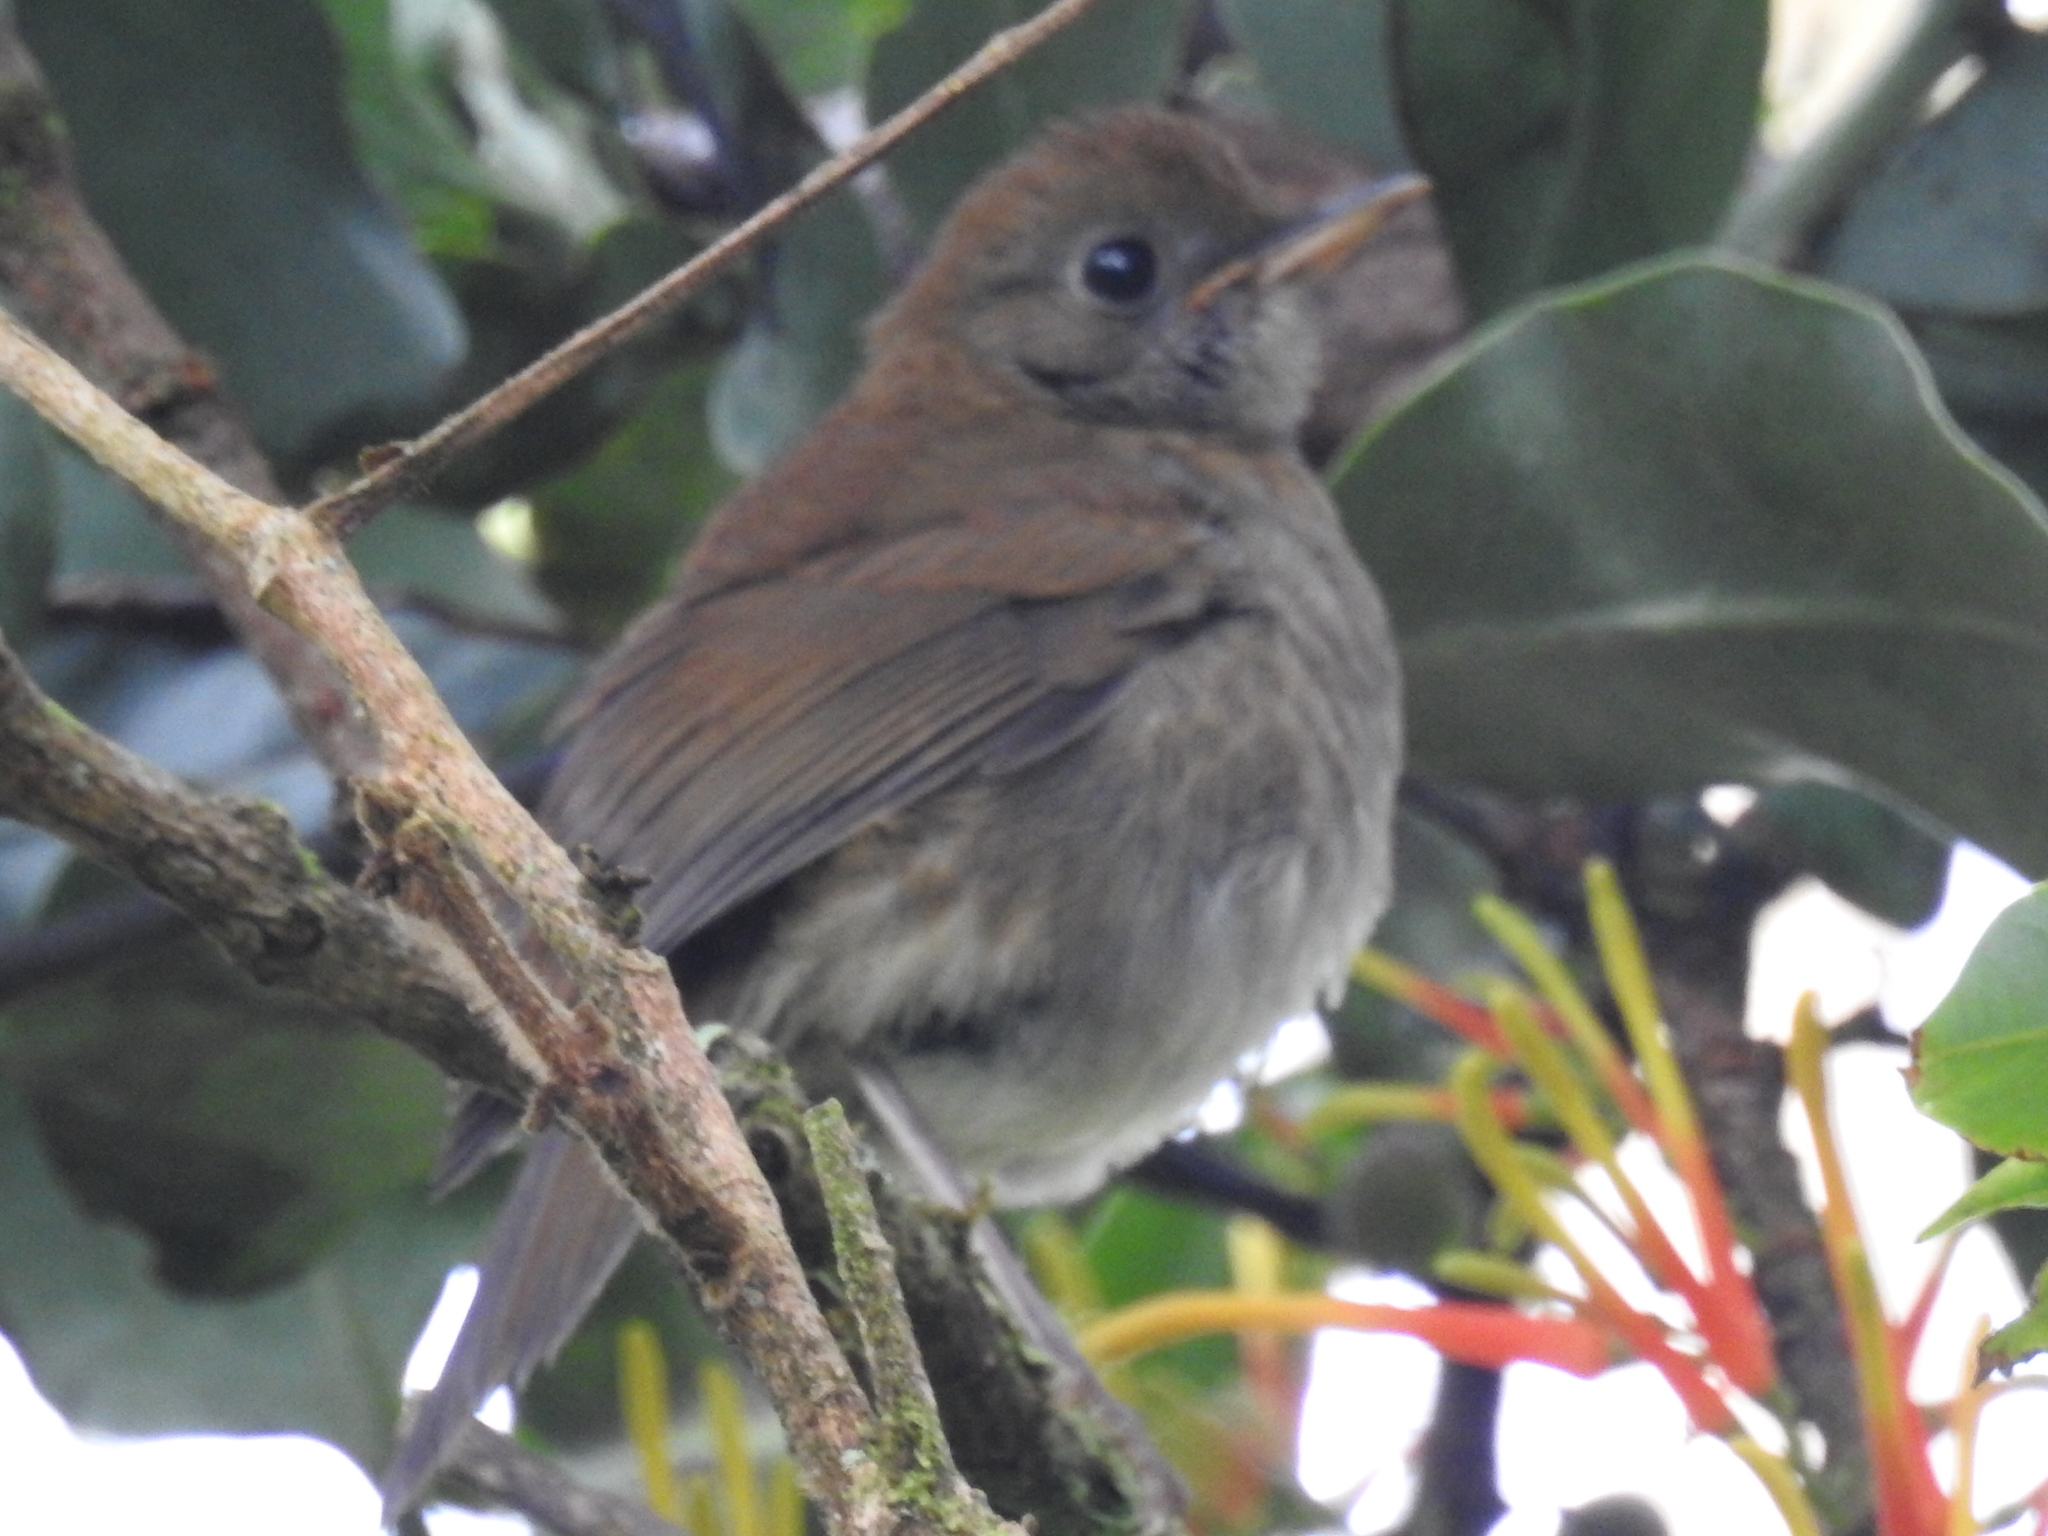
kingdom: Animalia
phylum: Chordata
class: Aves
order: Passeriformes
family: Turdidae
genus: Catharus
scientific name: Catharus frantzii
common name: Ruddy-capped nightingale-thrush
